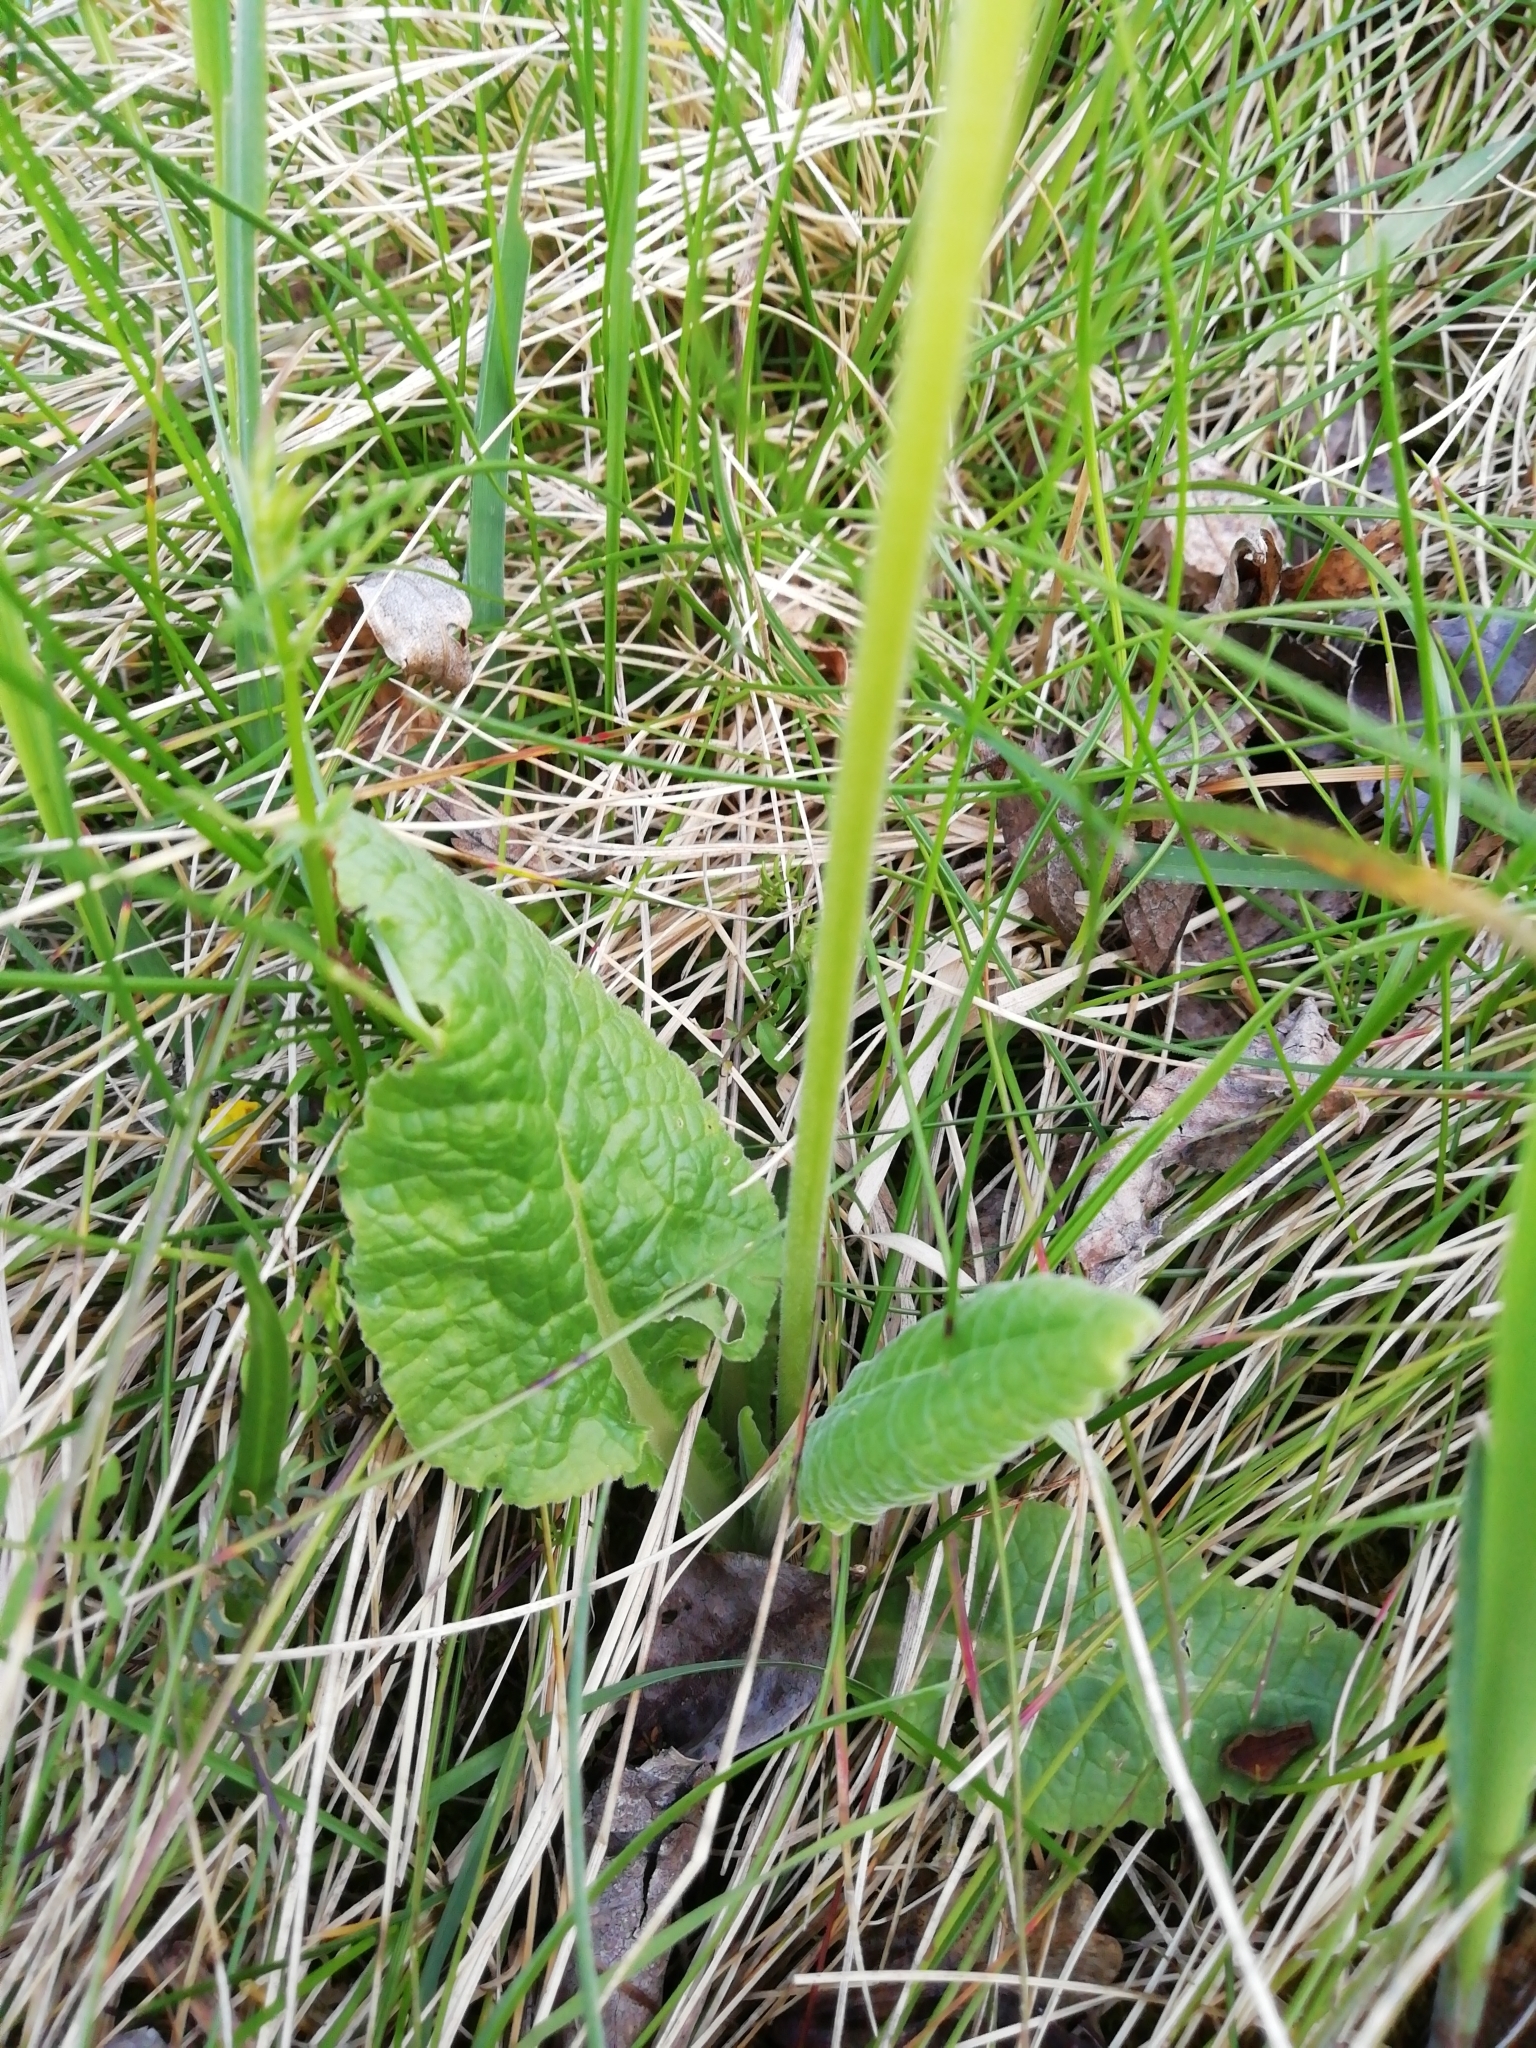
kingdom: Plantae
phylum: Tracheophyta
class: Magnoliopsida
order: Ericales
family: Primulaceae
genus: Primula
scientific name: Primula veris
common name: Cowslip
